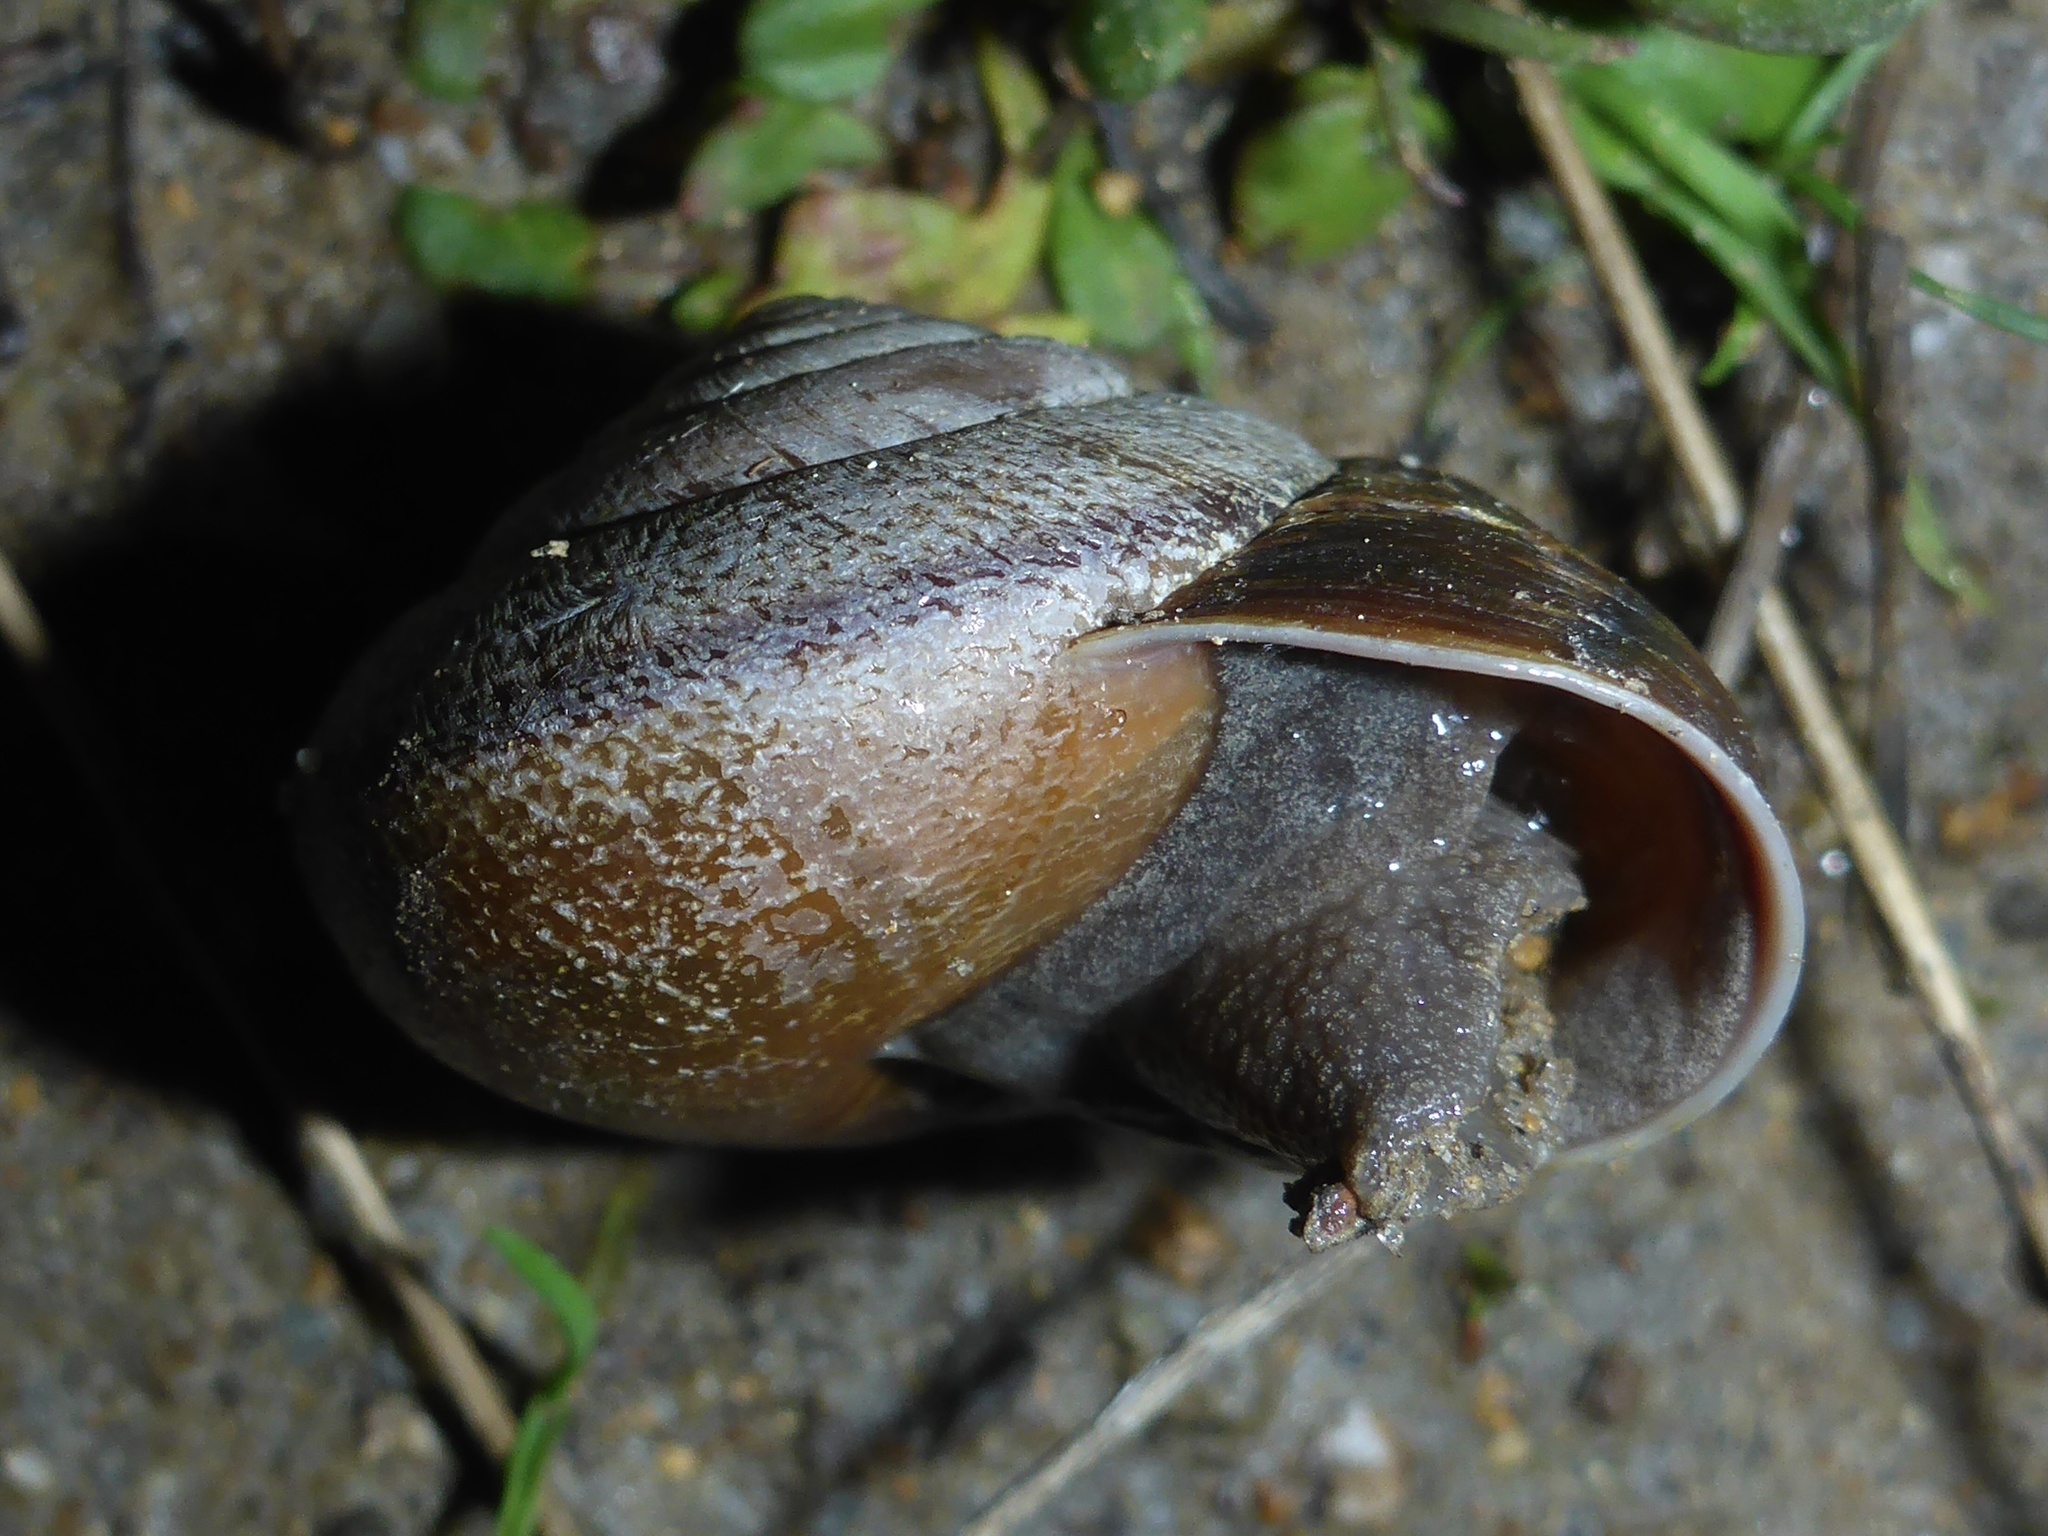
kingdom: Animalia
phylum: Mollusca
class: Gastropoda
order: Stylommatophora
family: Xanthonychidae
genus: Helminthoglypta
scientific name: Helminthoglypta arrosa
